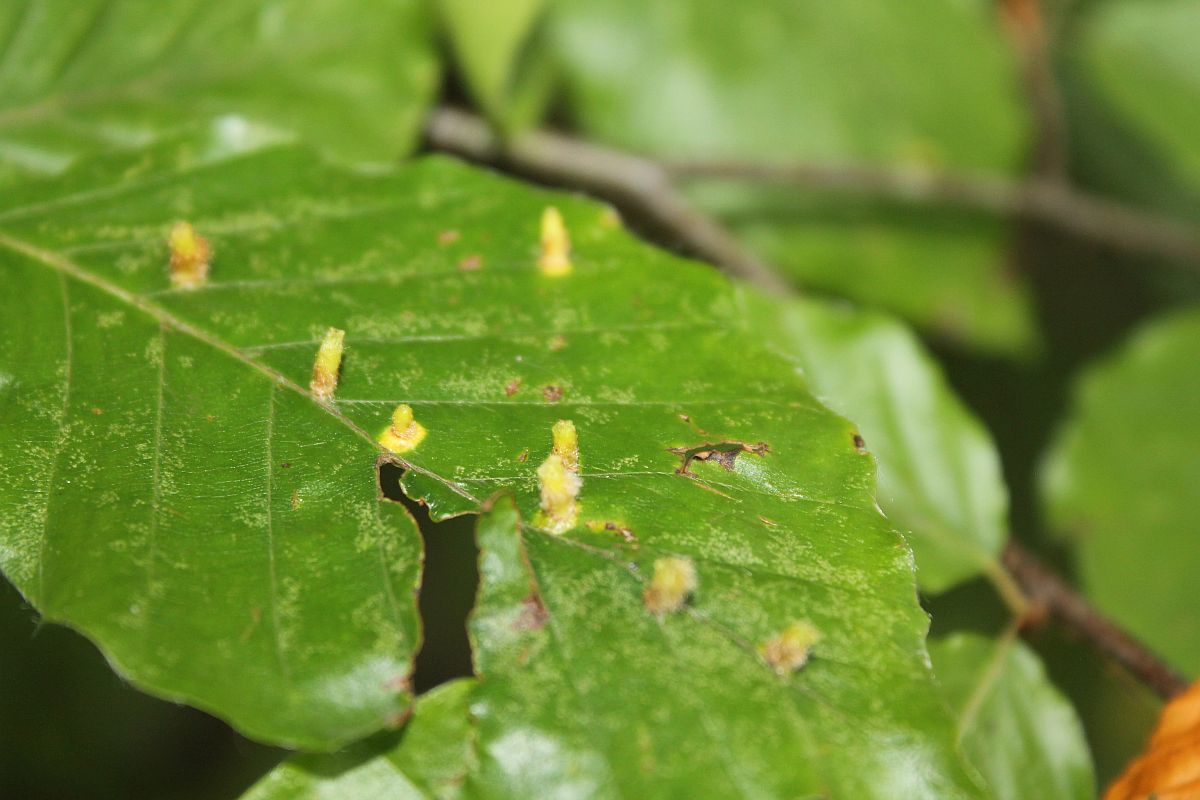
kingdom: Animalia
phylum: Arthropoda
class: Insecta
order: Diptera
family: Cecidomyiidae
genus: Hartigiola
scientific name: Hartigiola annulipes
